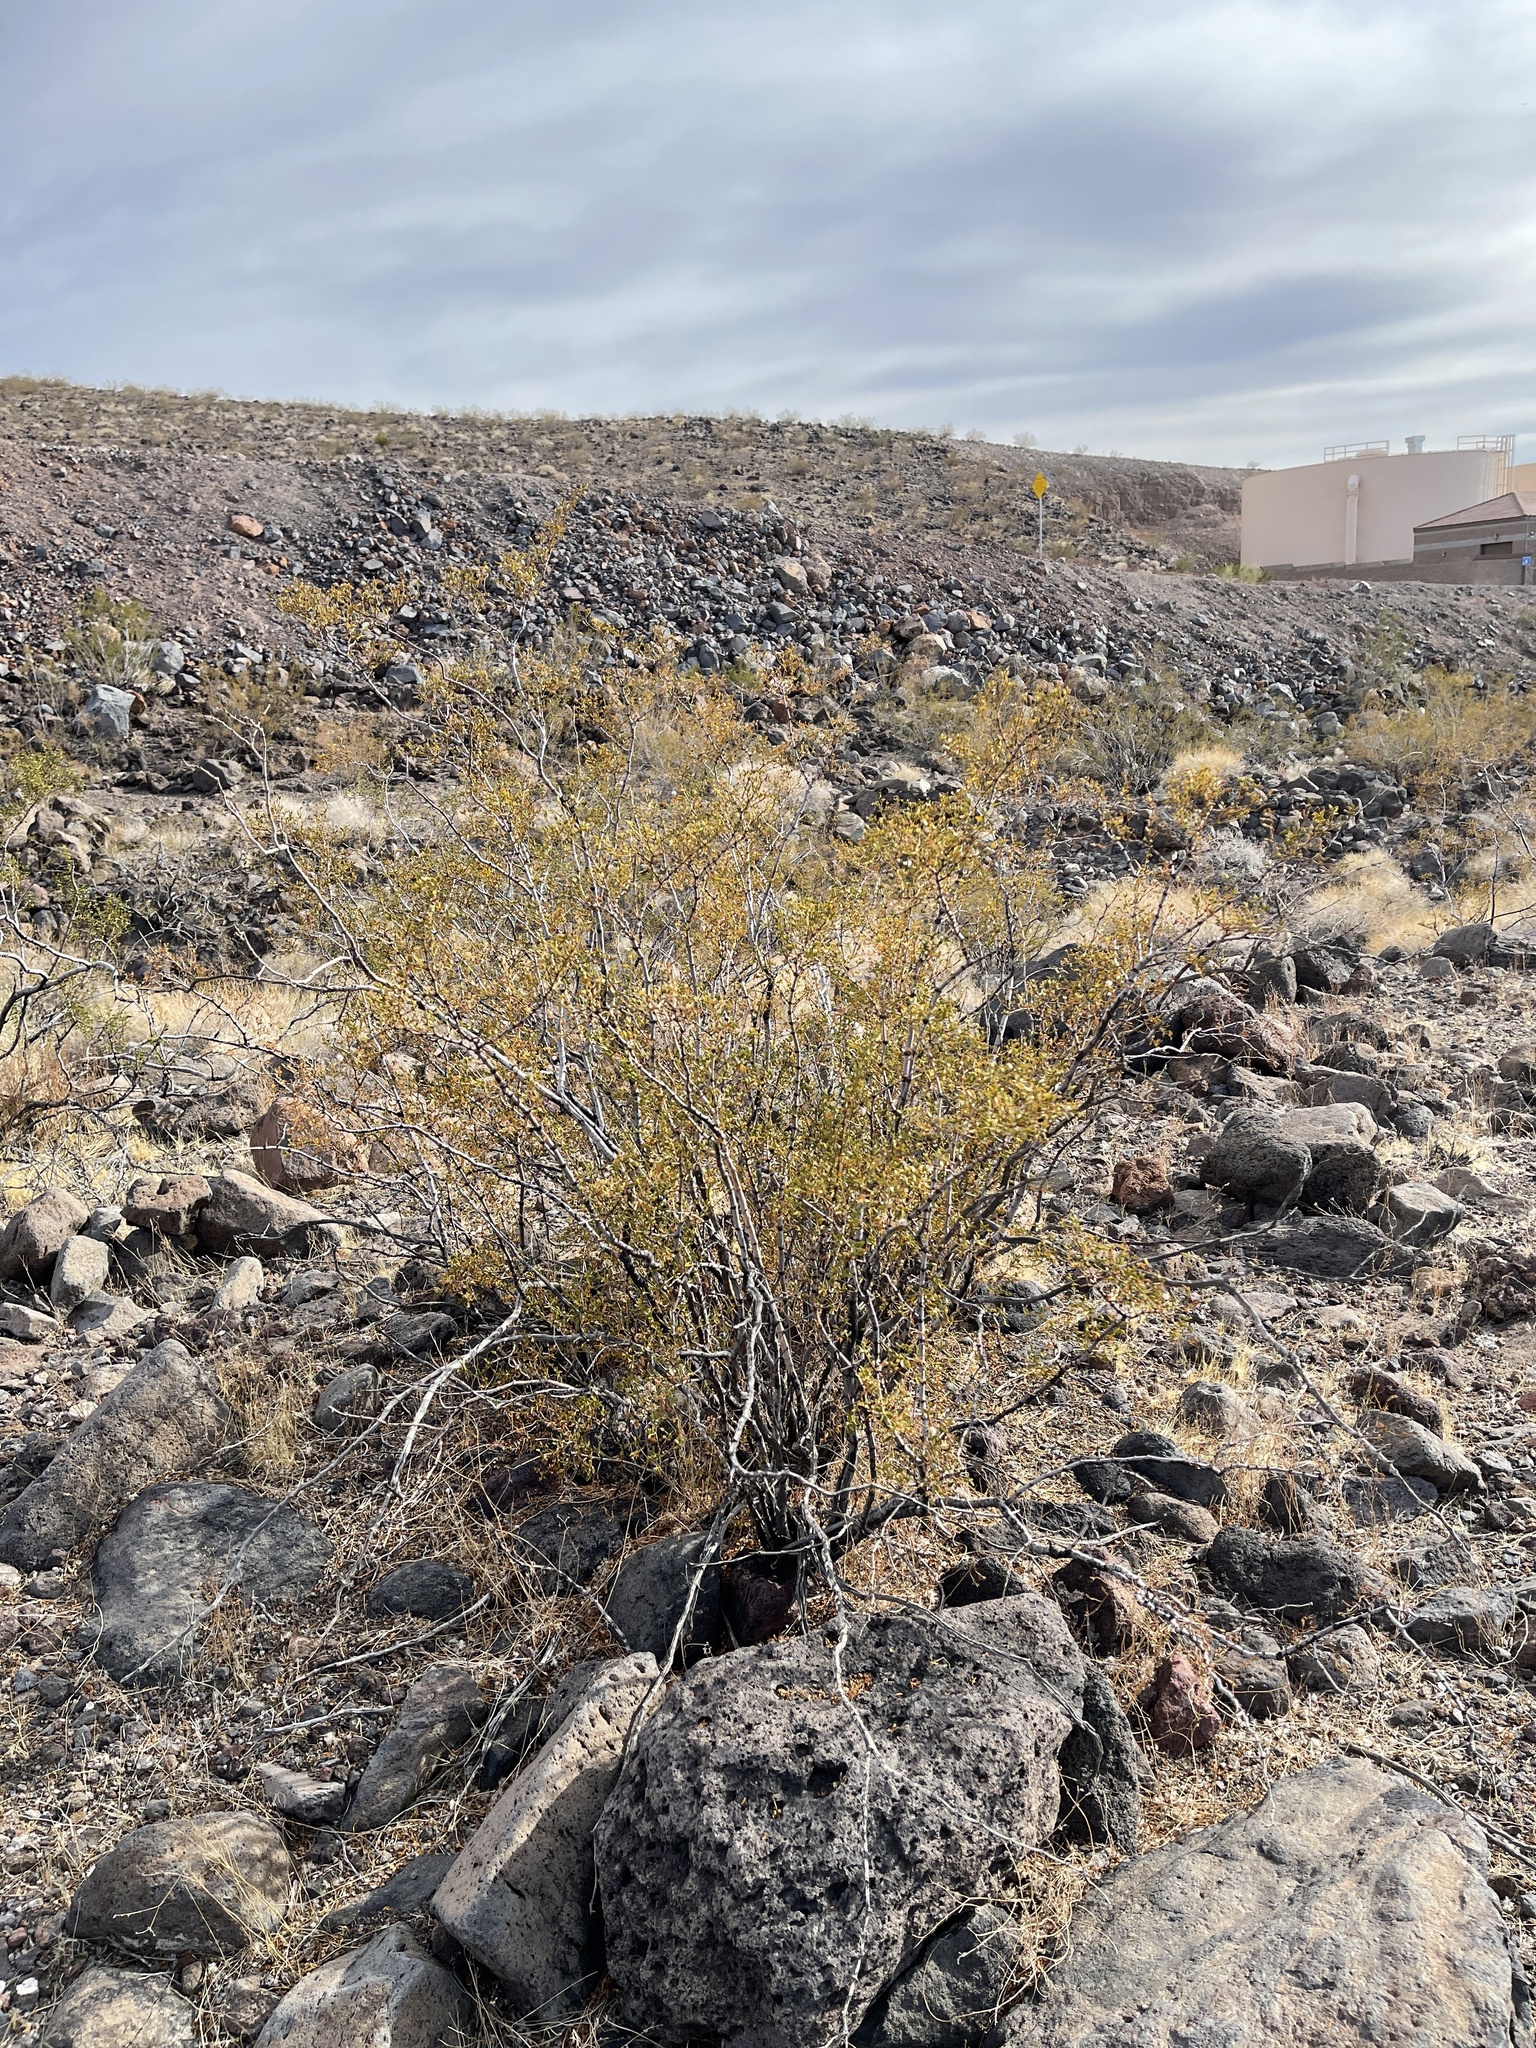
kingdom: Plantae
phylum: Tracheophyta
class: Magnoliopsida
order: Zygophyllales
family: Zygophyllaceae
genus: Larrea
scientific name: Larrea tridentata
